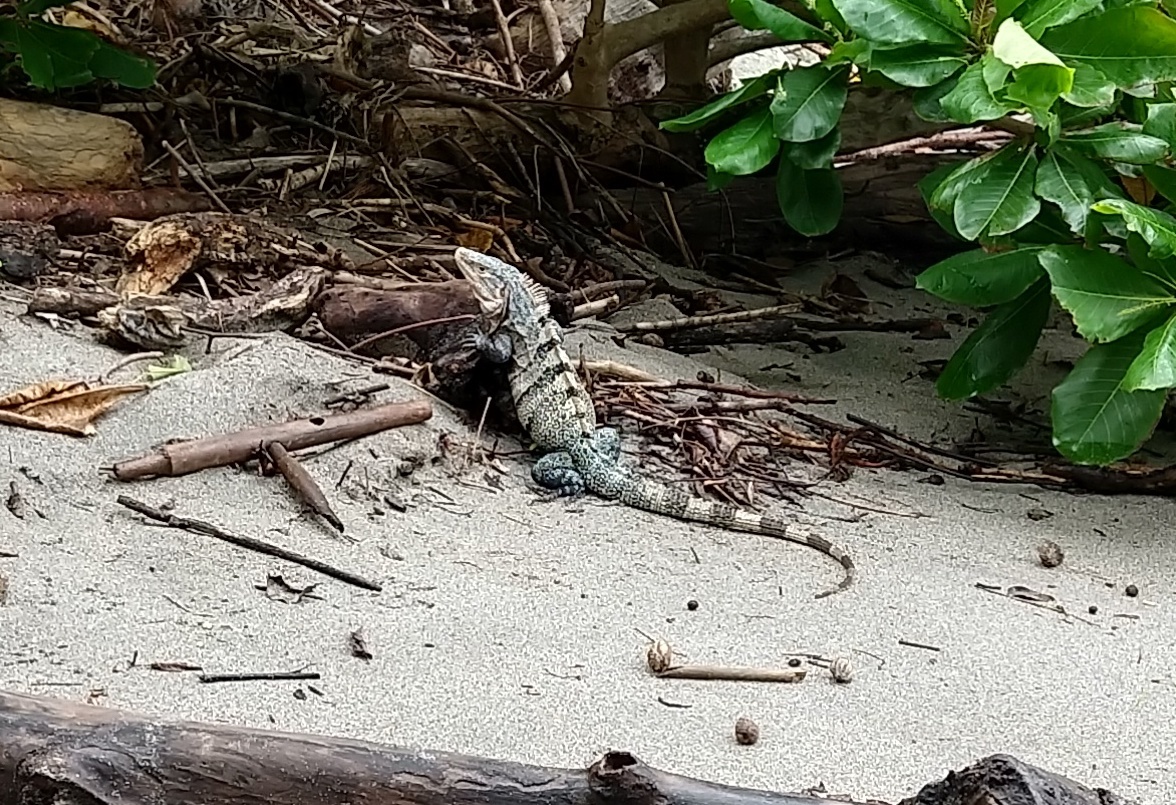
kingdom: Animalia
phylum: Chordata
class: Squamata
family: Iguanidae
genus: Ctenosaura
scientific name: Ctenosaura similis
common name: Black spiny-tailed iguana
